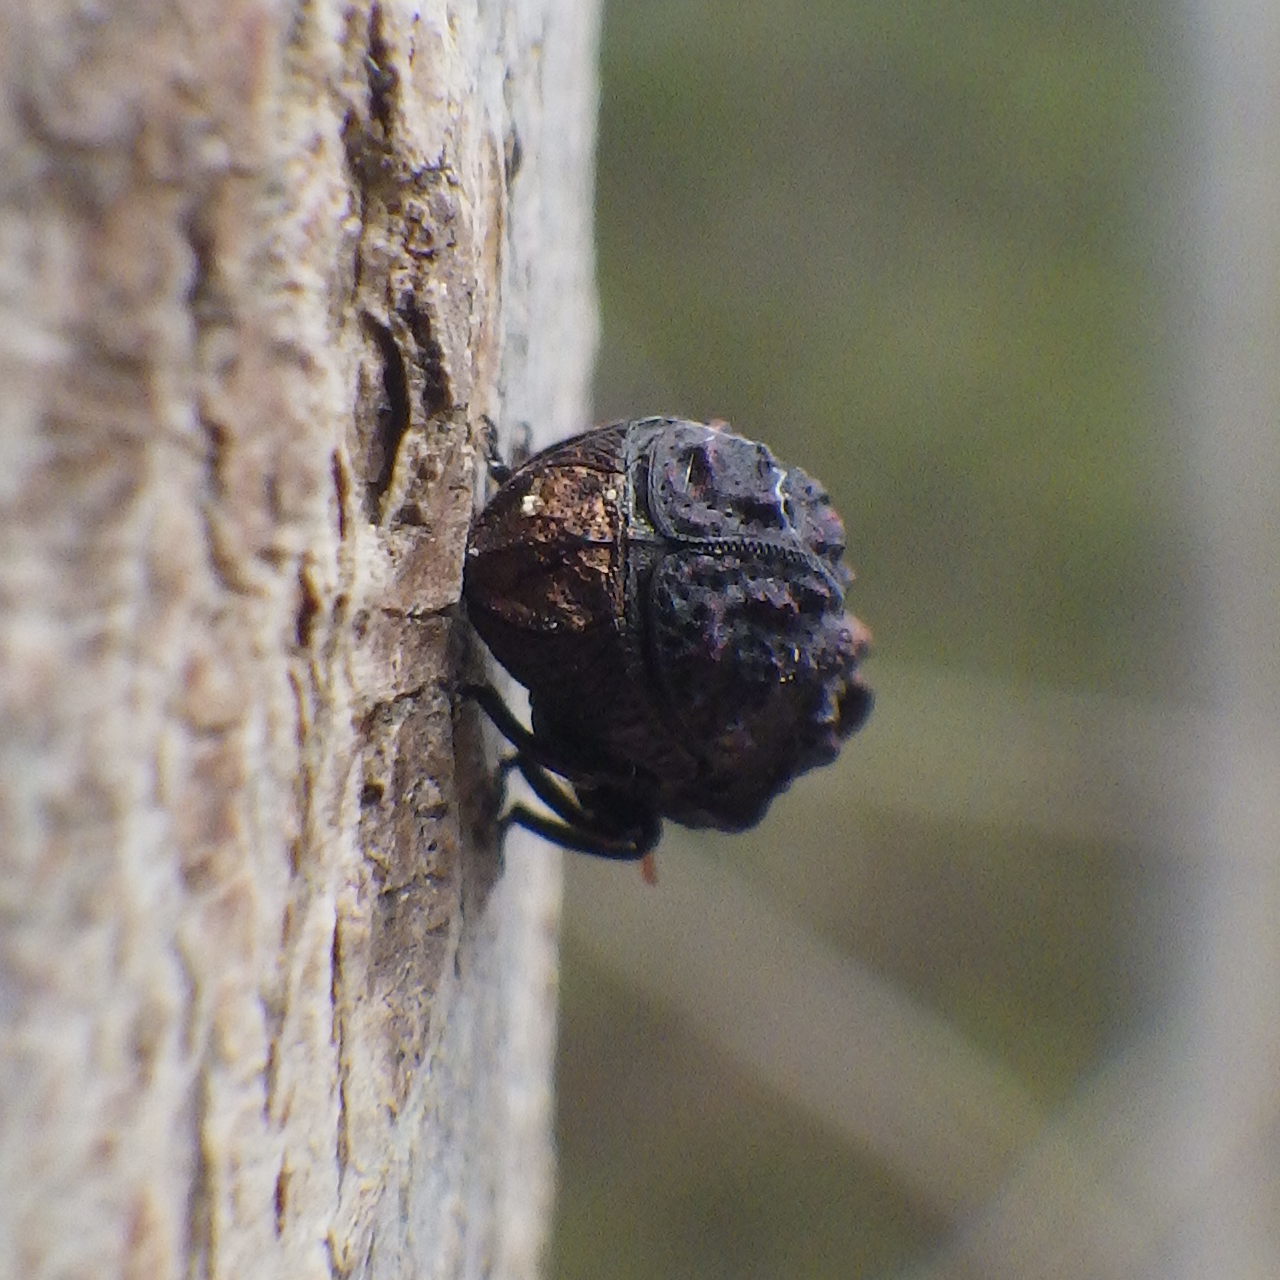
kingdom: Animalia
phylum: Arthropoda
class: Insecta
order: Coleoptera
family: Chrysomelidae
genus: Neochlamisus
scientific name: Neochlamisus bebbianae
